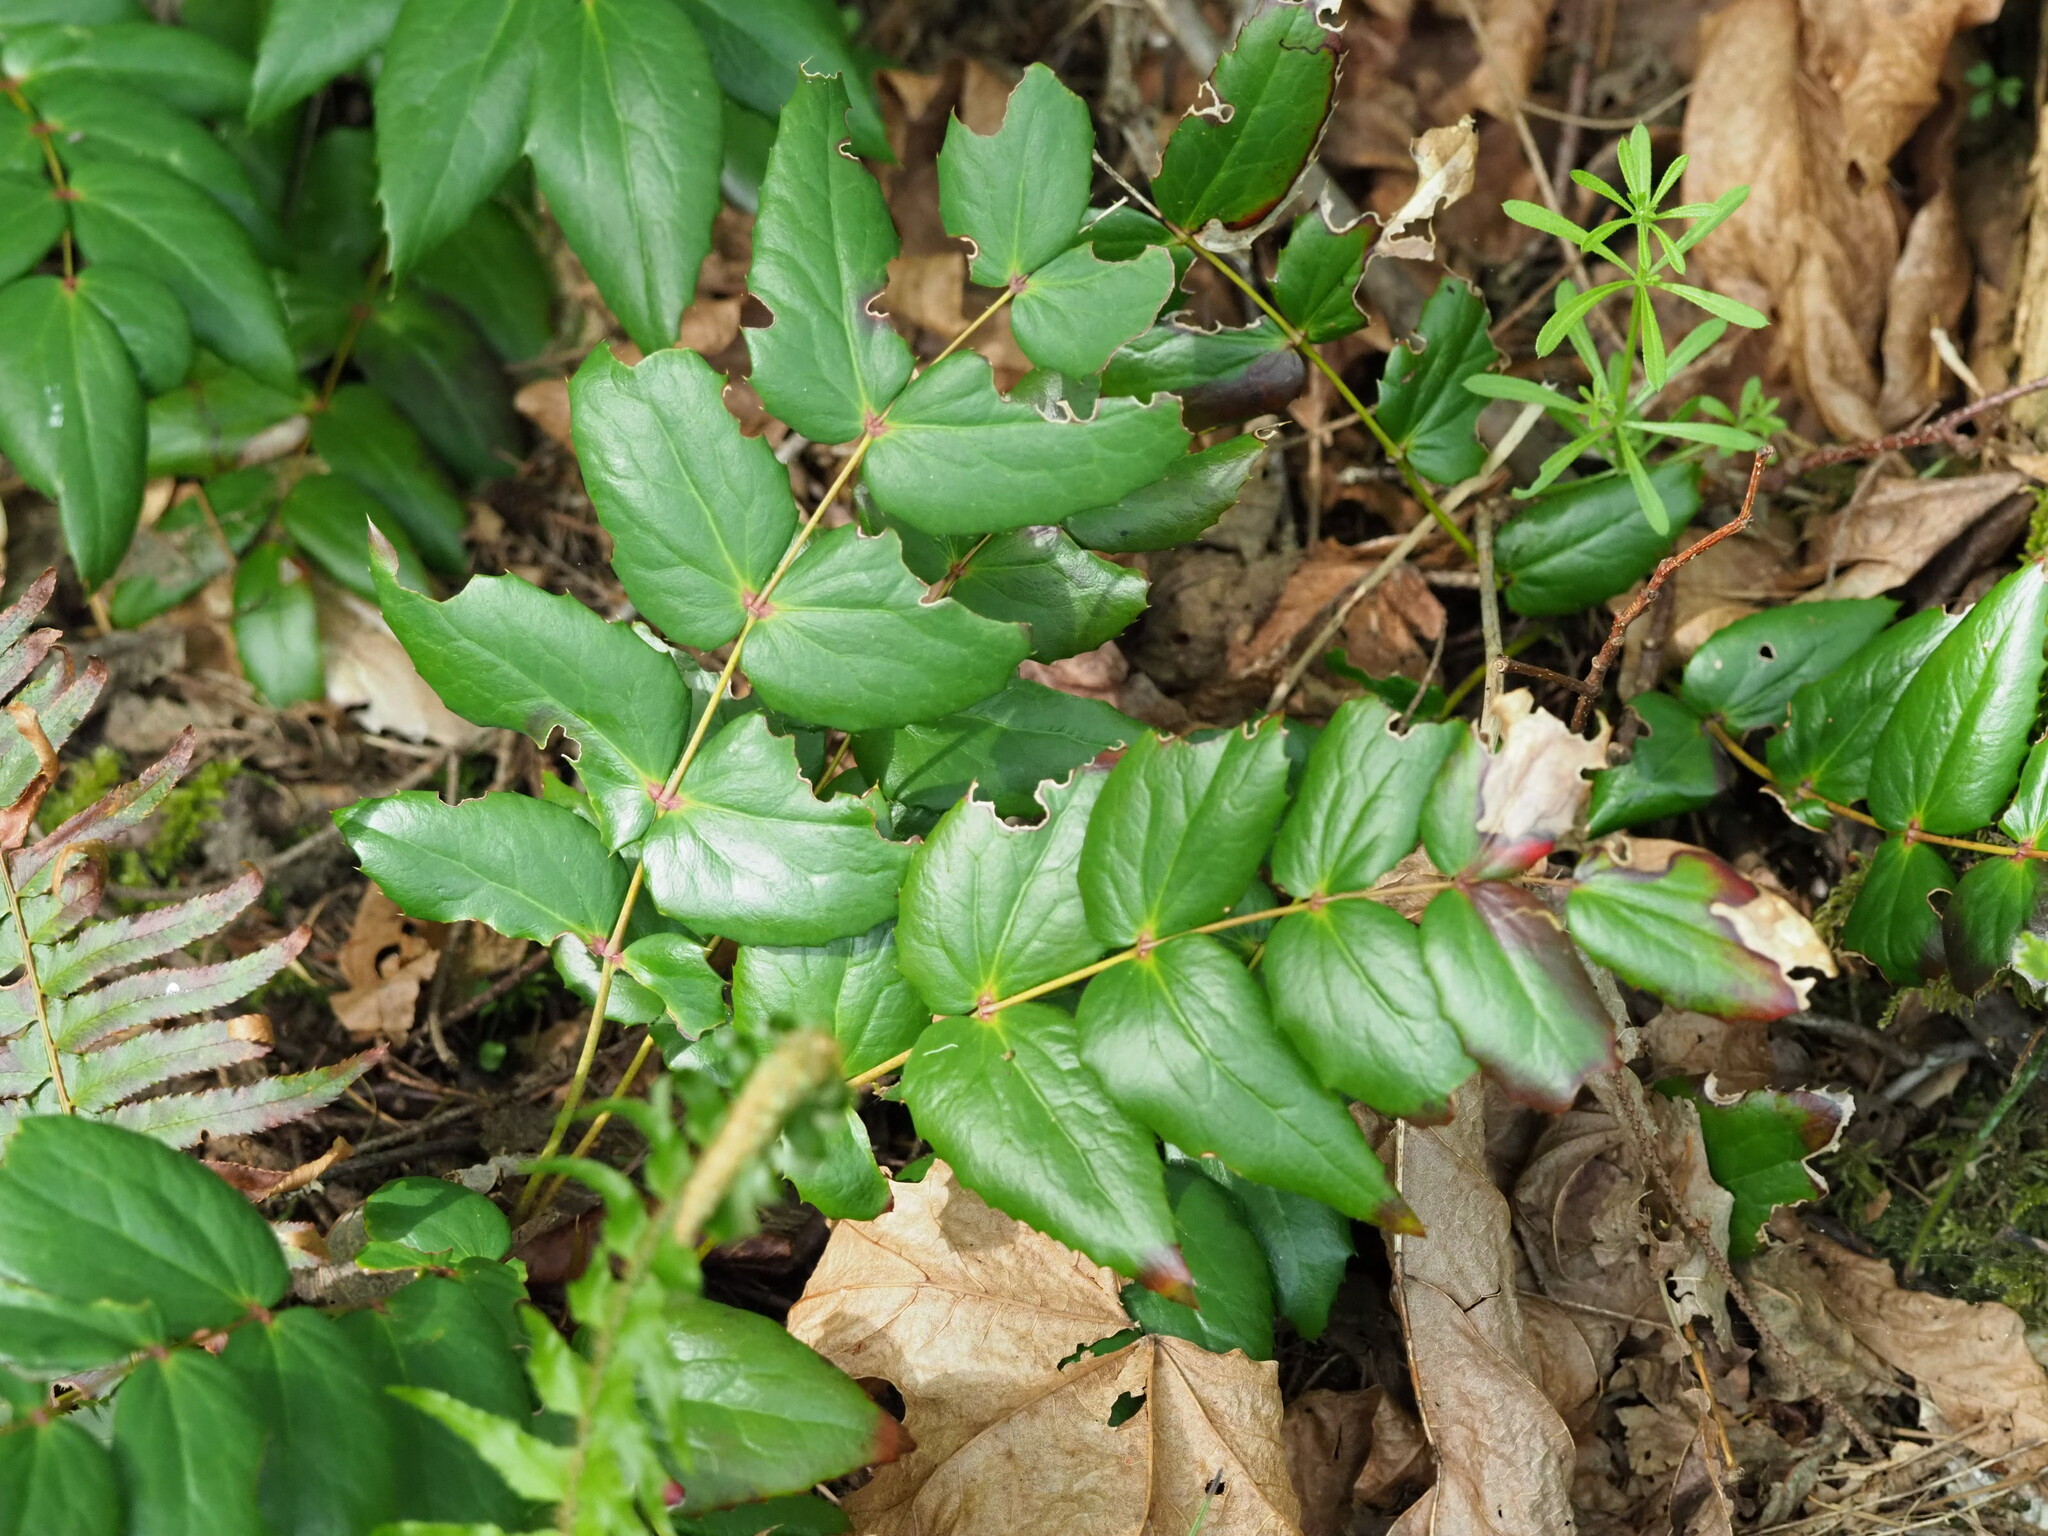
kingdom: Plantae
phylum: Tracheophyta
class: Magnoliopsida
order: Ranunculales
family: Berberidaceae
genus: Mahonia
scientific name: Mahonia nervosa
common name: Cascade oregon-grape
